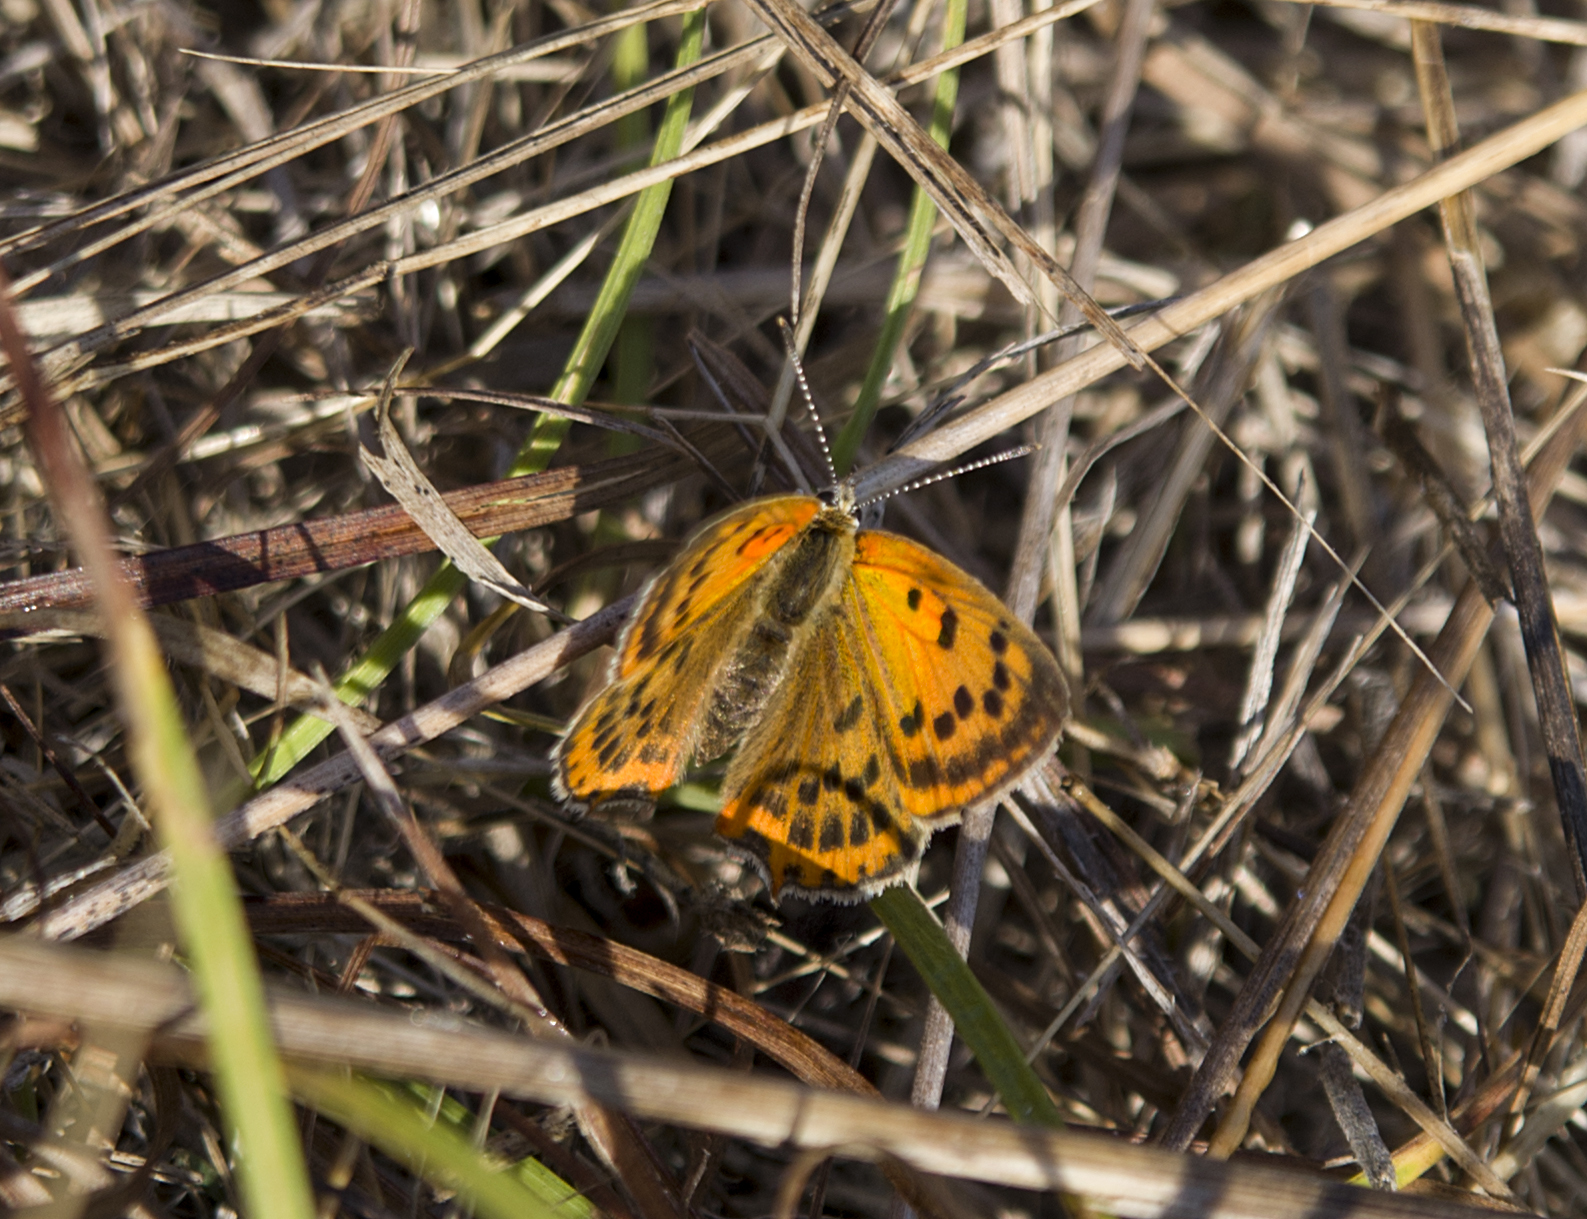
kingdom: Animalia
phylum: Arthropoda
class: Insecta
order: Lepidoptera
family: Lycaenidae
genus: Polyommatus
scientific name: Polyommatus ottomanus
